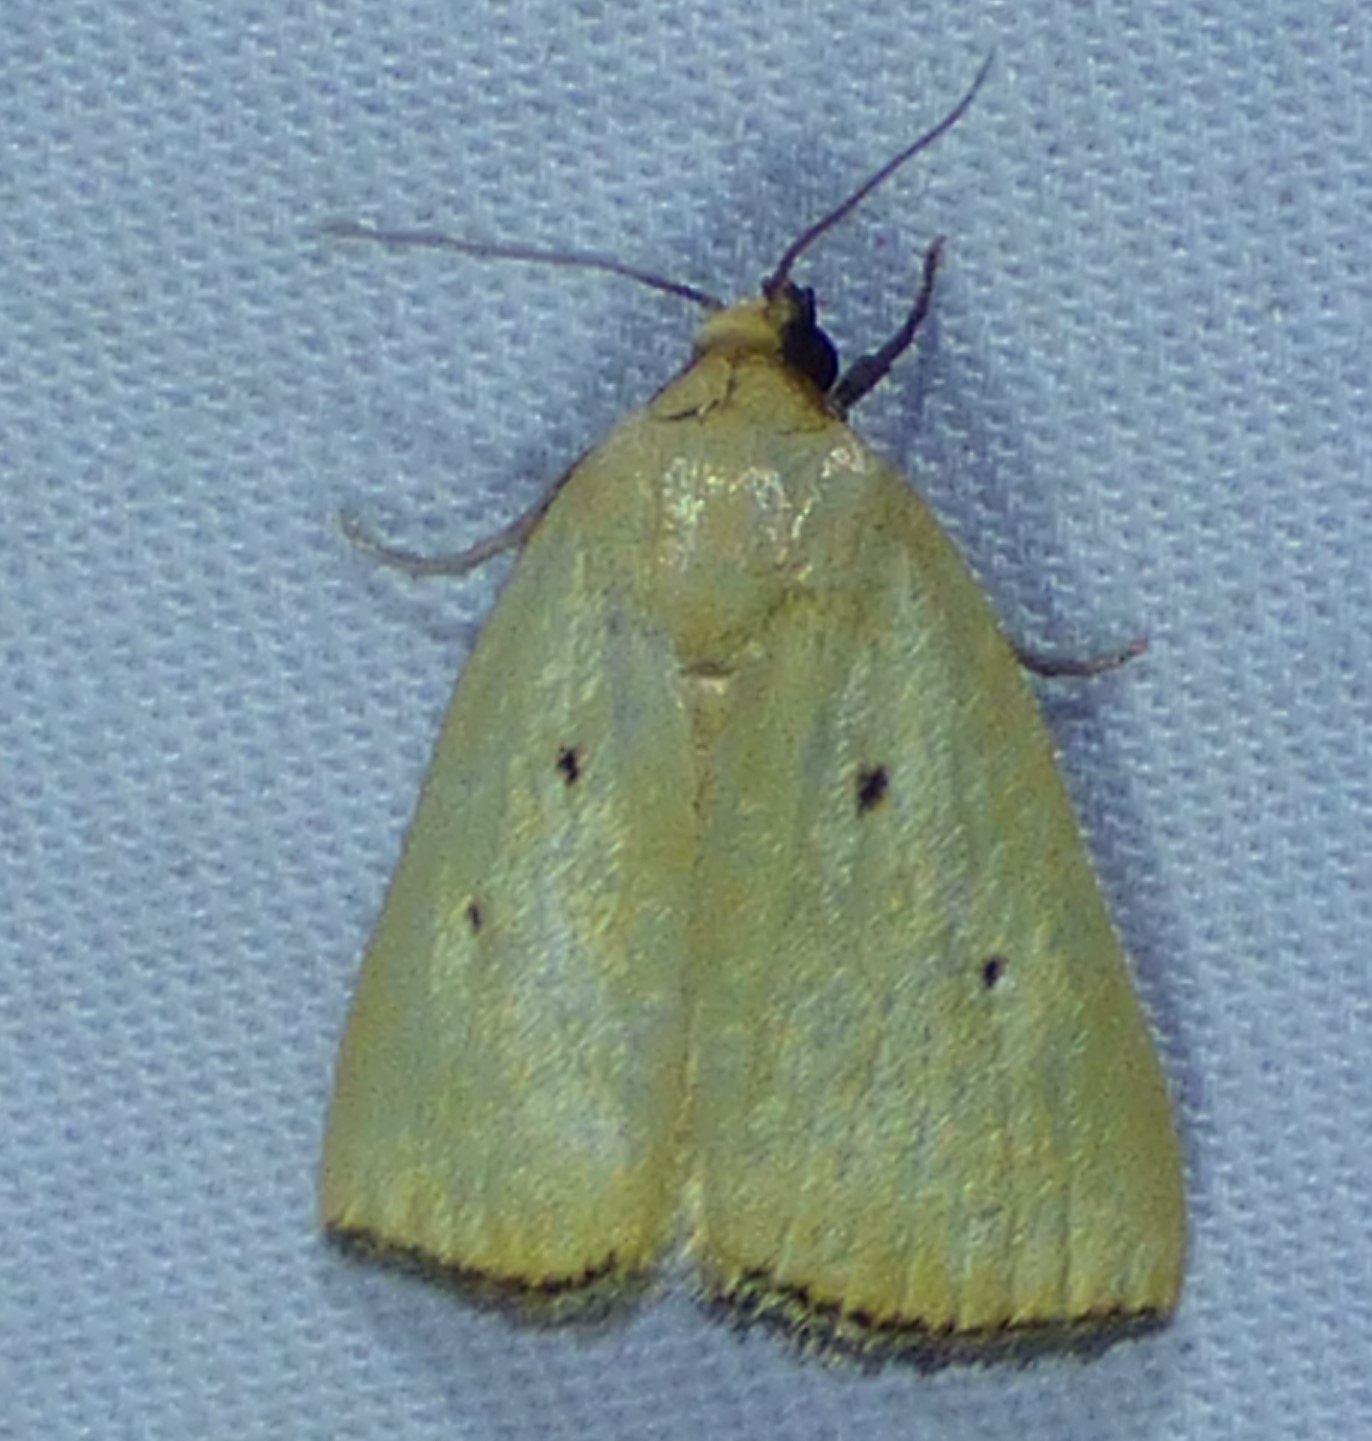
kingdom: Animalia
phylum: Arthropoda
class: Insecta
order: Lepidoptera
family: Noctuidae
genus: Marimatha
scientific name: Marimatha nigrofimbria
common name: Black-bordered lemon moth
